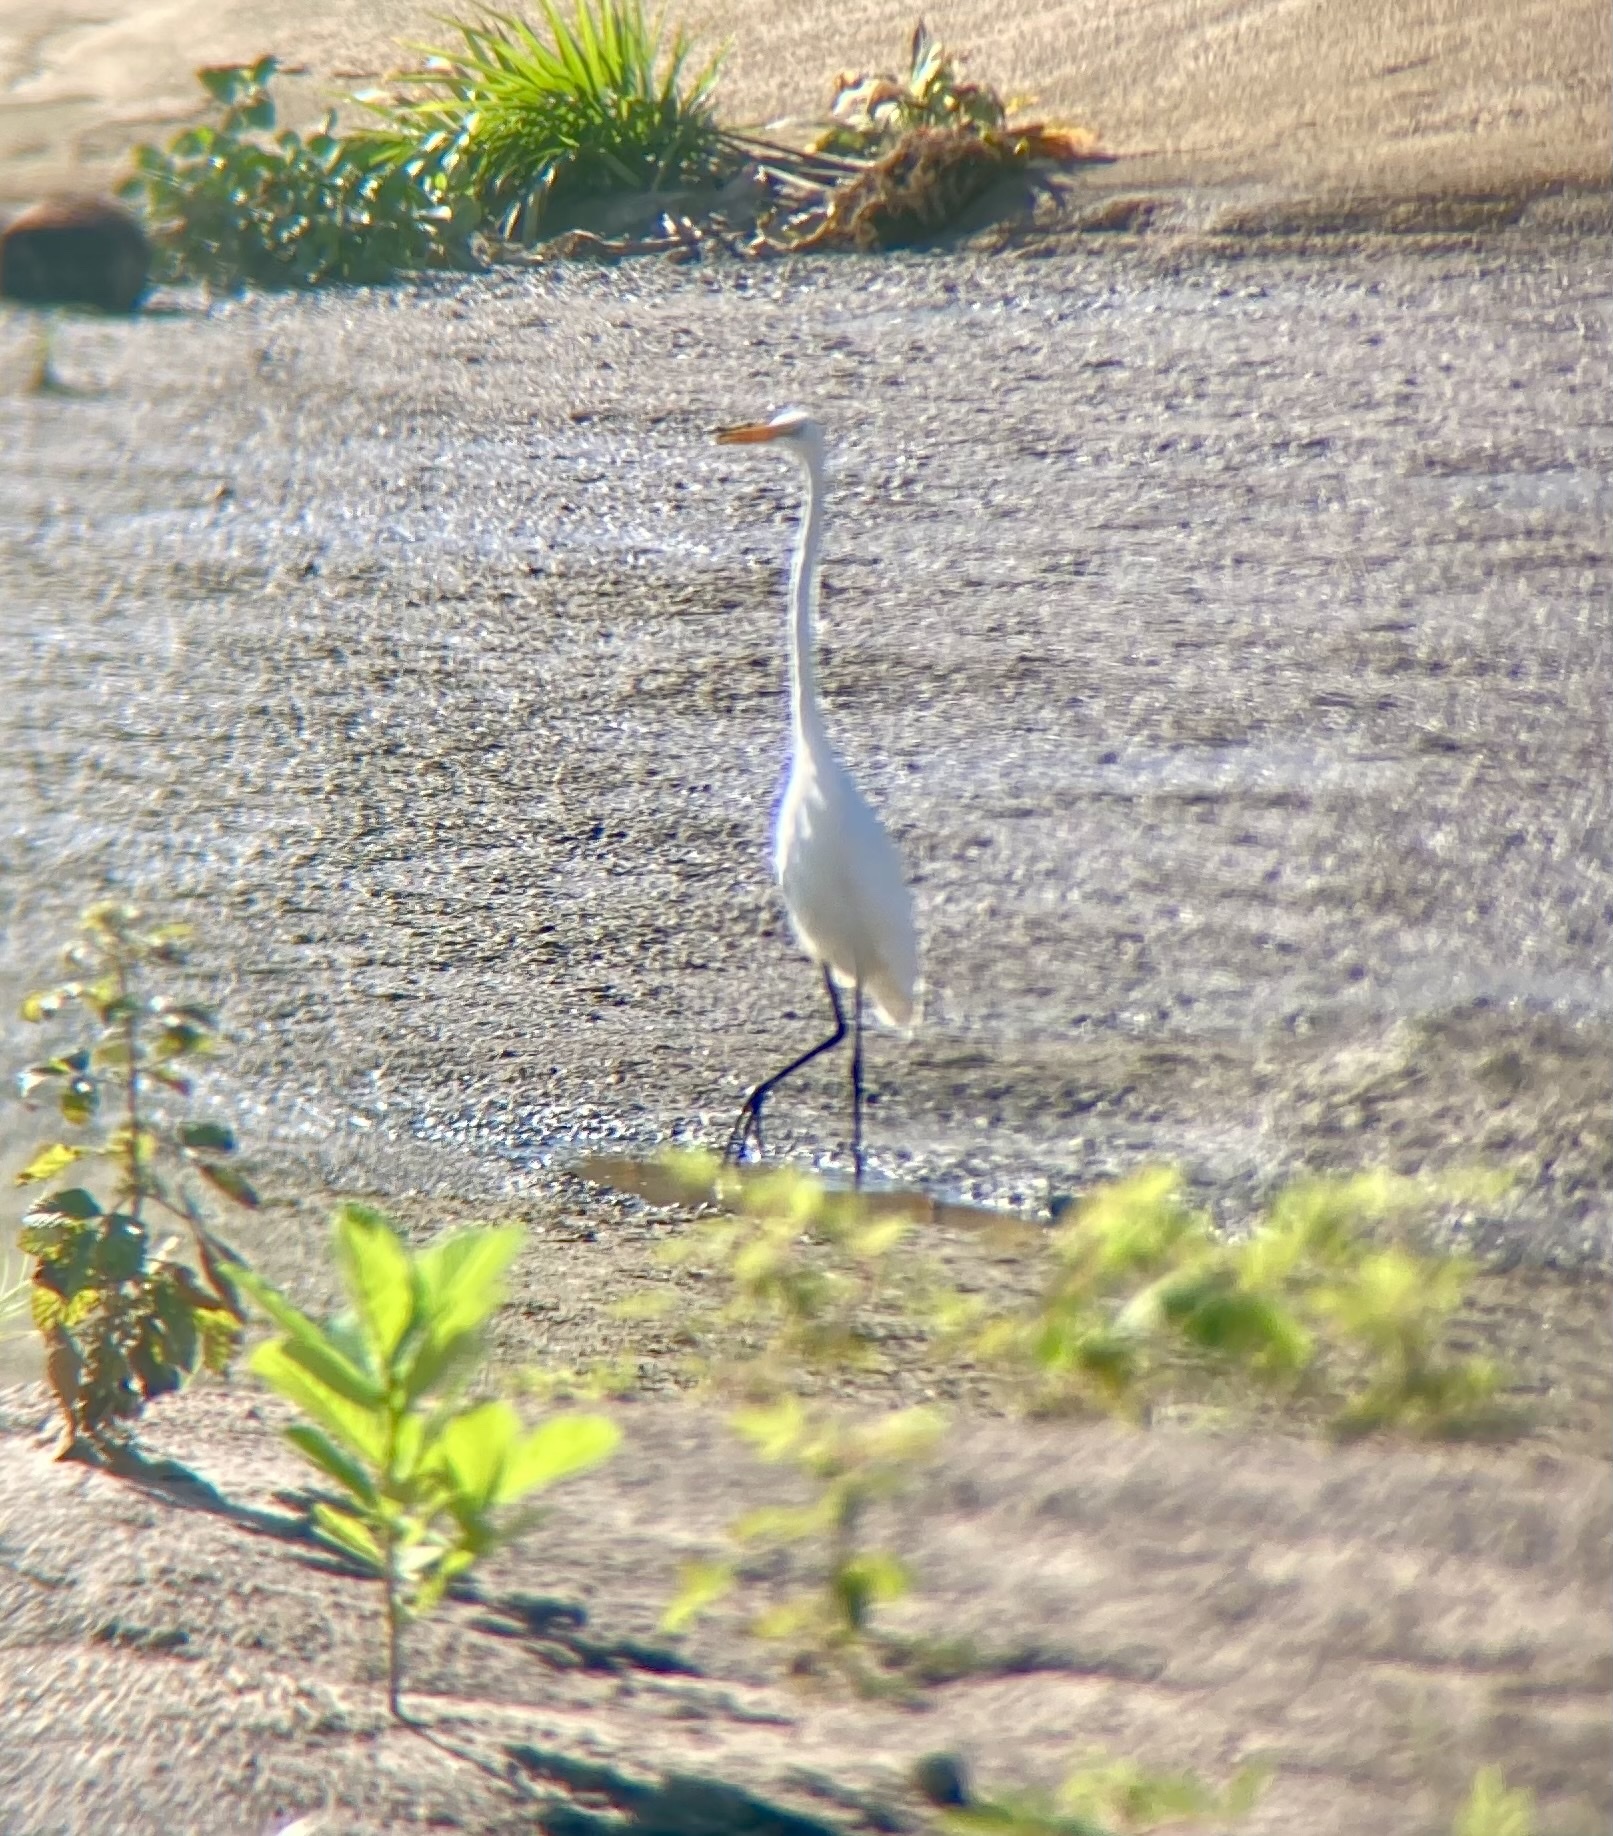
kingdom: Animalia
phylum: Chordata
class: Aves
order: Pelecaniformes
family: Ardeidae
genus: Ardea
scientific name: Ardea alba
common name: Great egret
